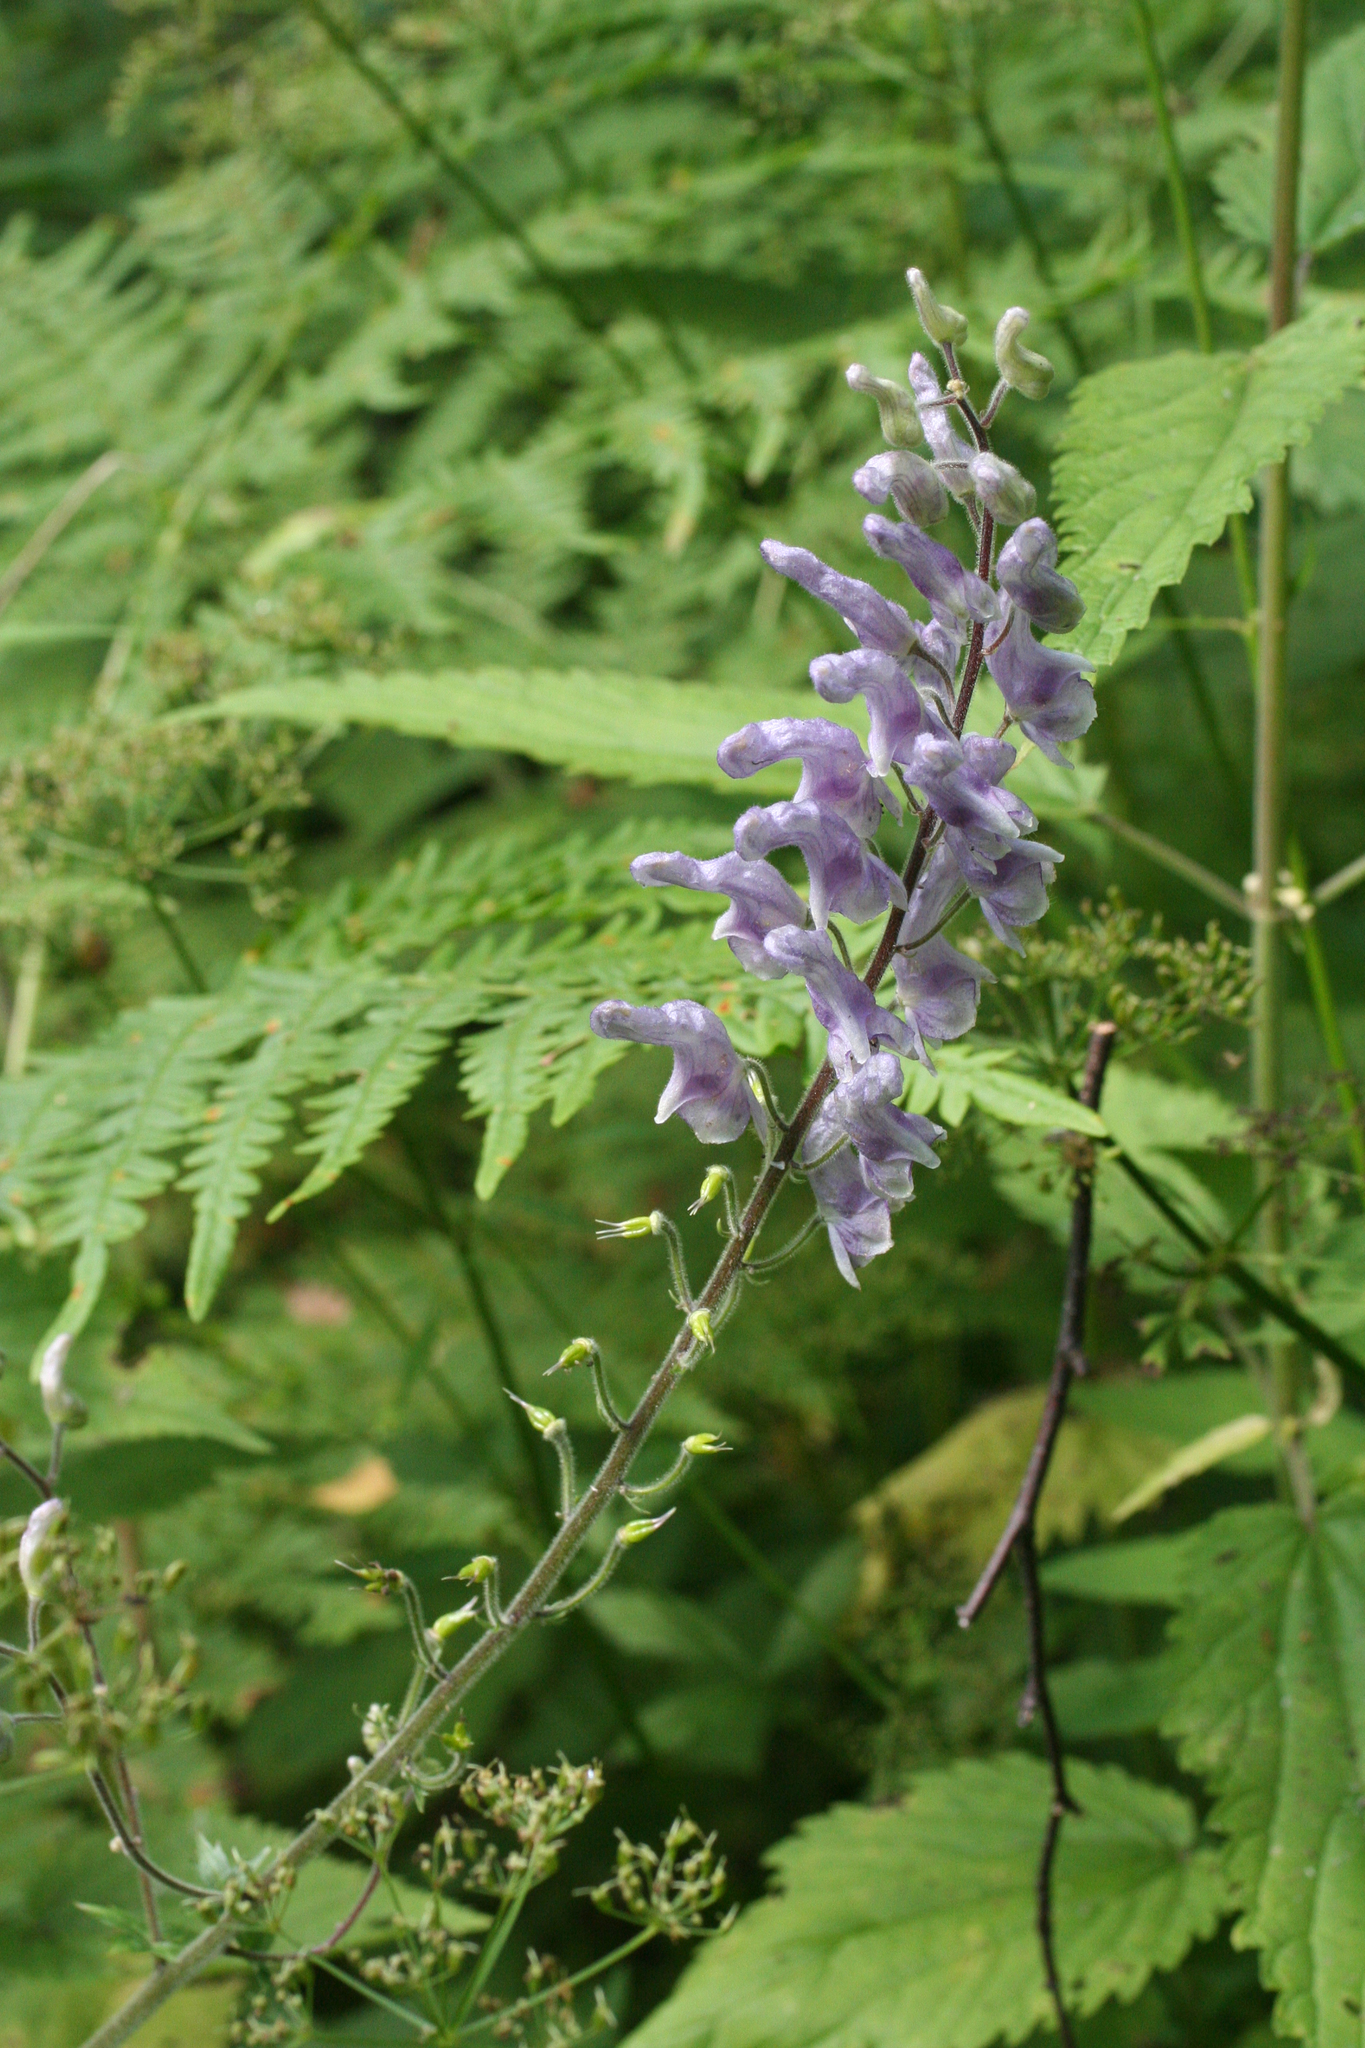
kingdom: Plantae
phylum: Tracheophyta
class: Magnoliopsida
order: Ranunculales
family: Ranunculaceae
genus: Aconitum
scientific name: Aconitum septentrionale
